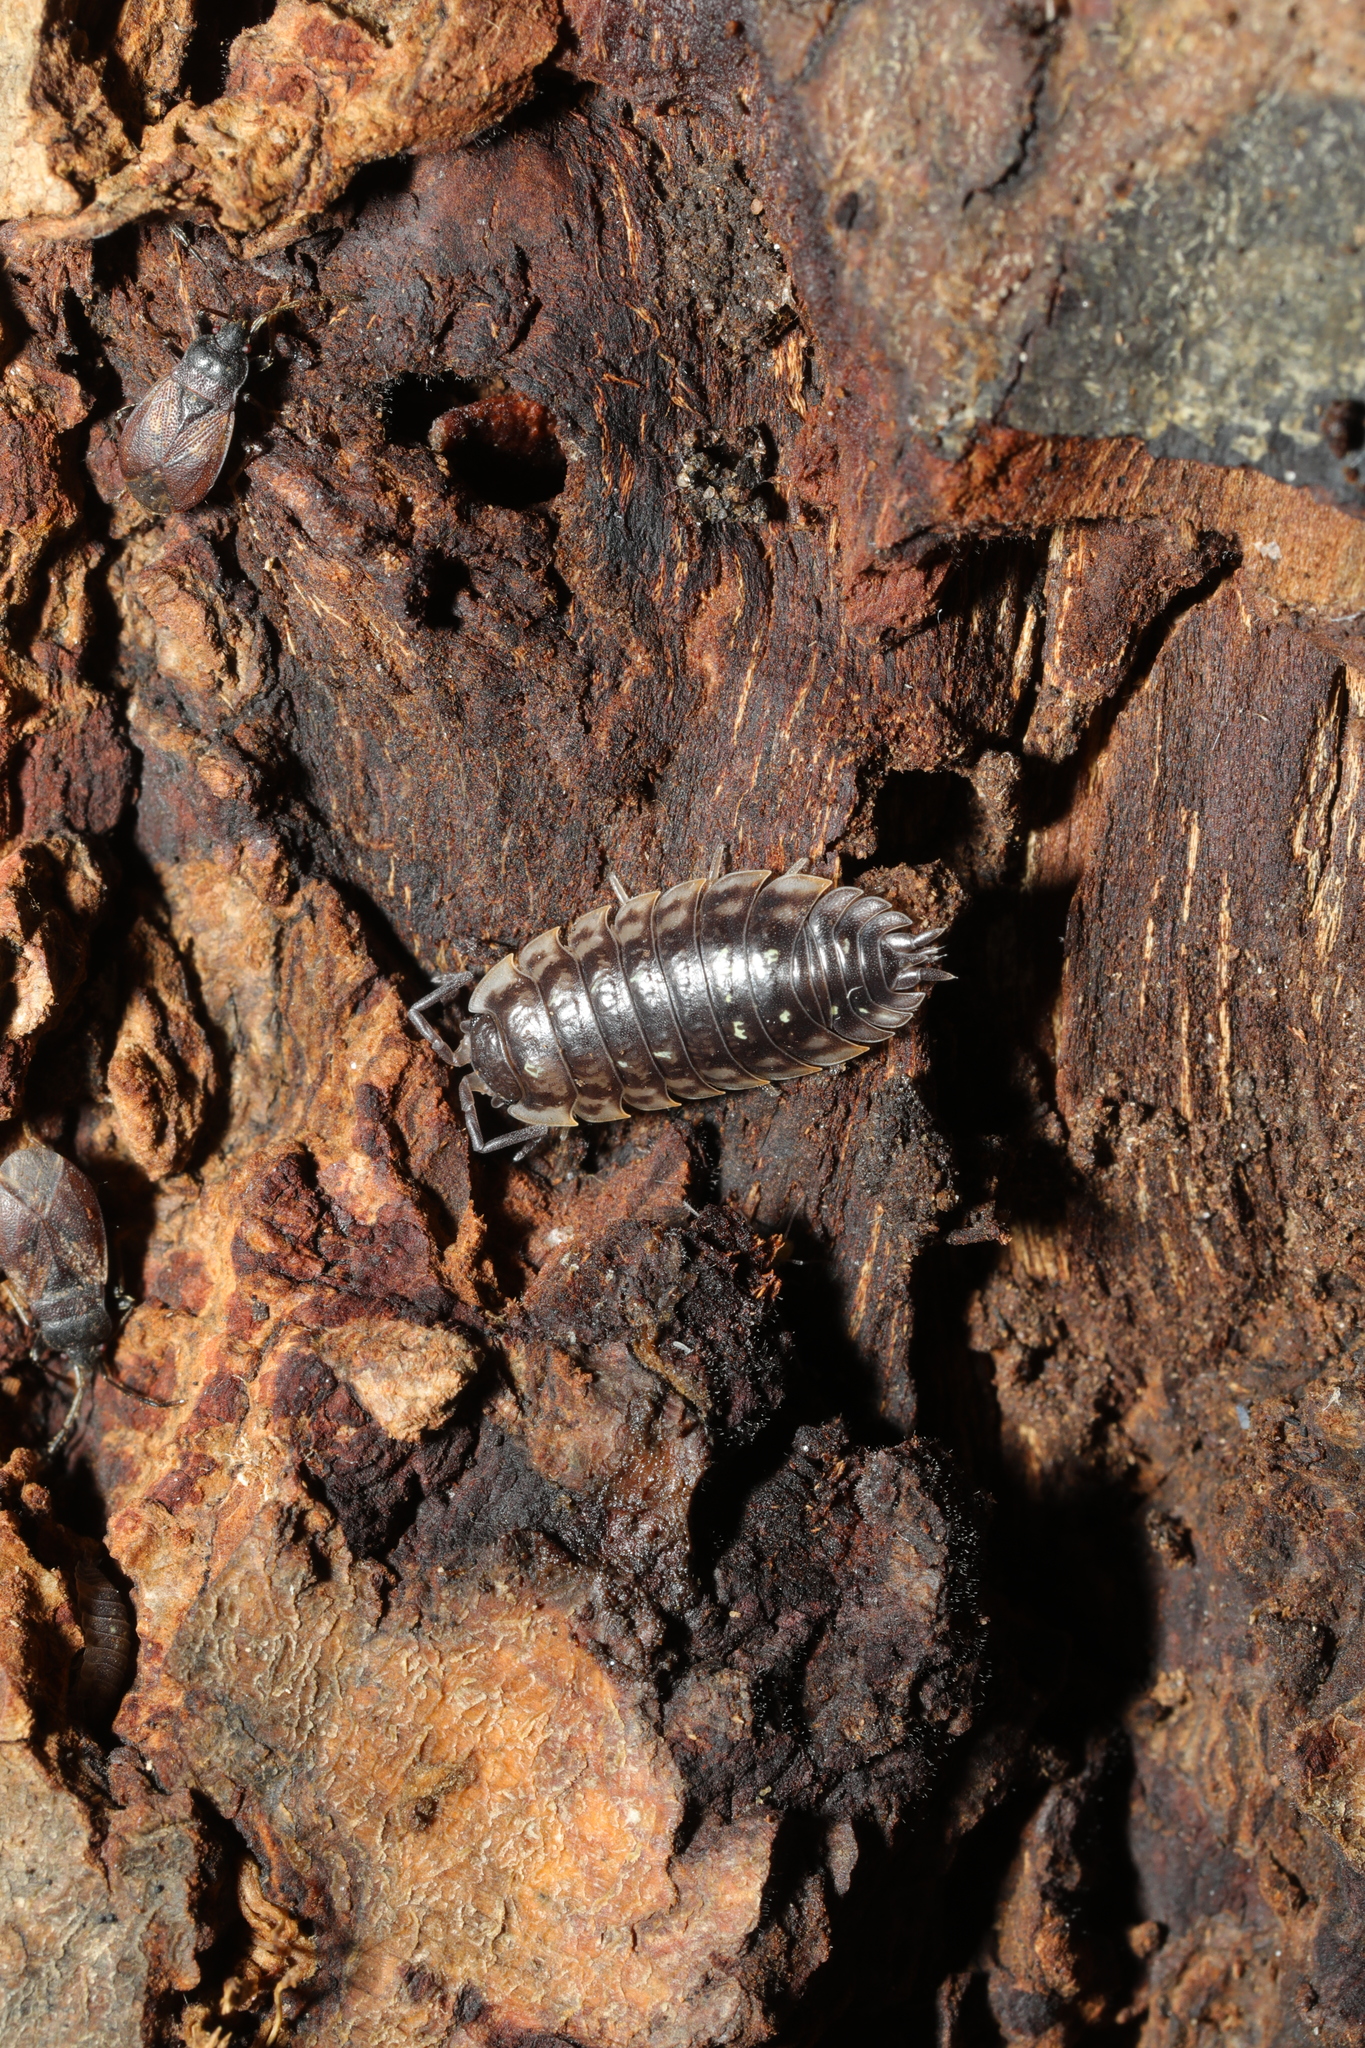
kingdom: Animalia
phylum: Arthropoda
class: Malacostraca
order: Isopoda
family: Oniscidae
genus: Oniscus
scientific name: Oniscus asellus
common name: Common shiny woodlouse
